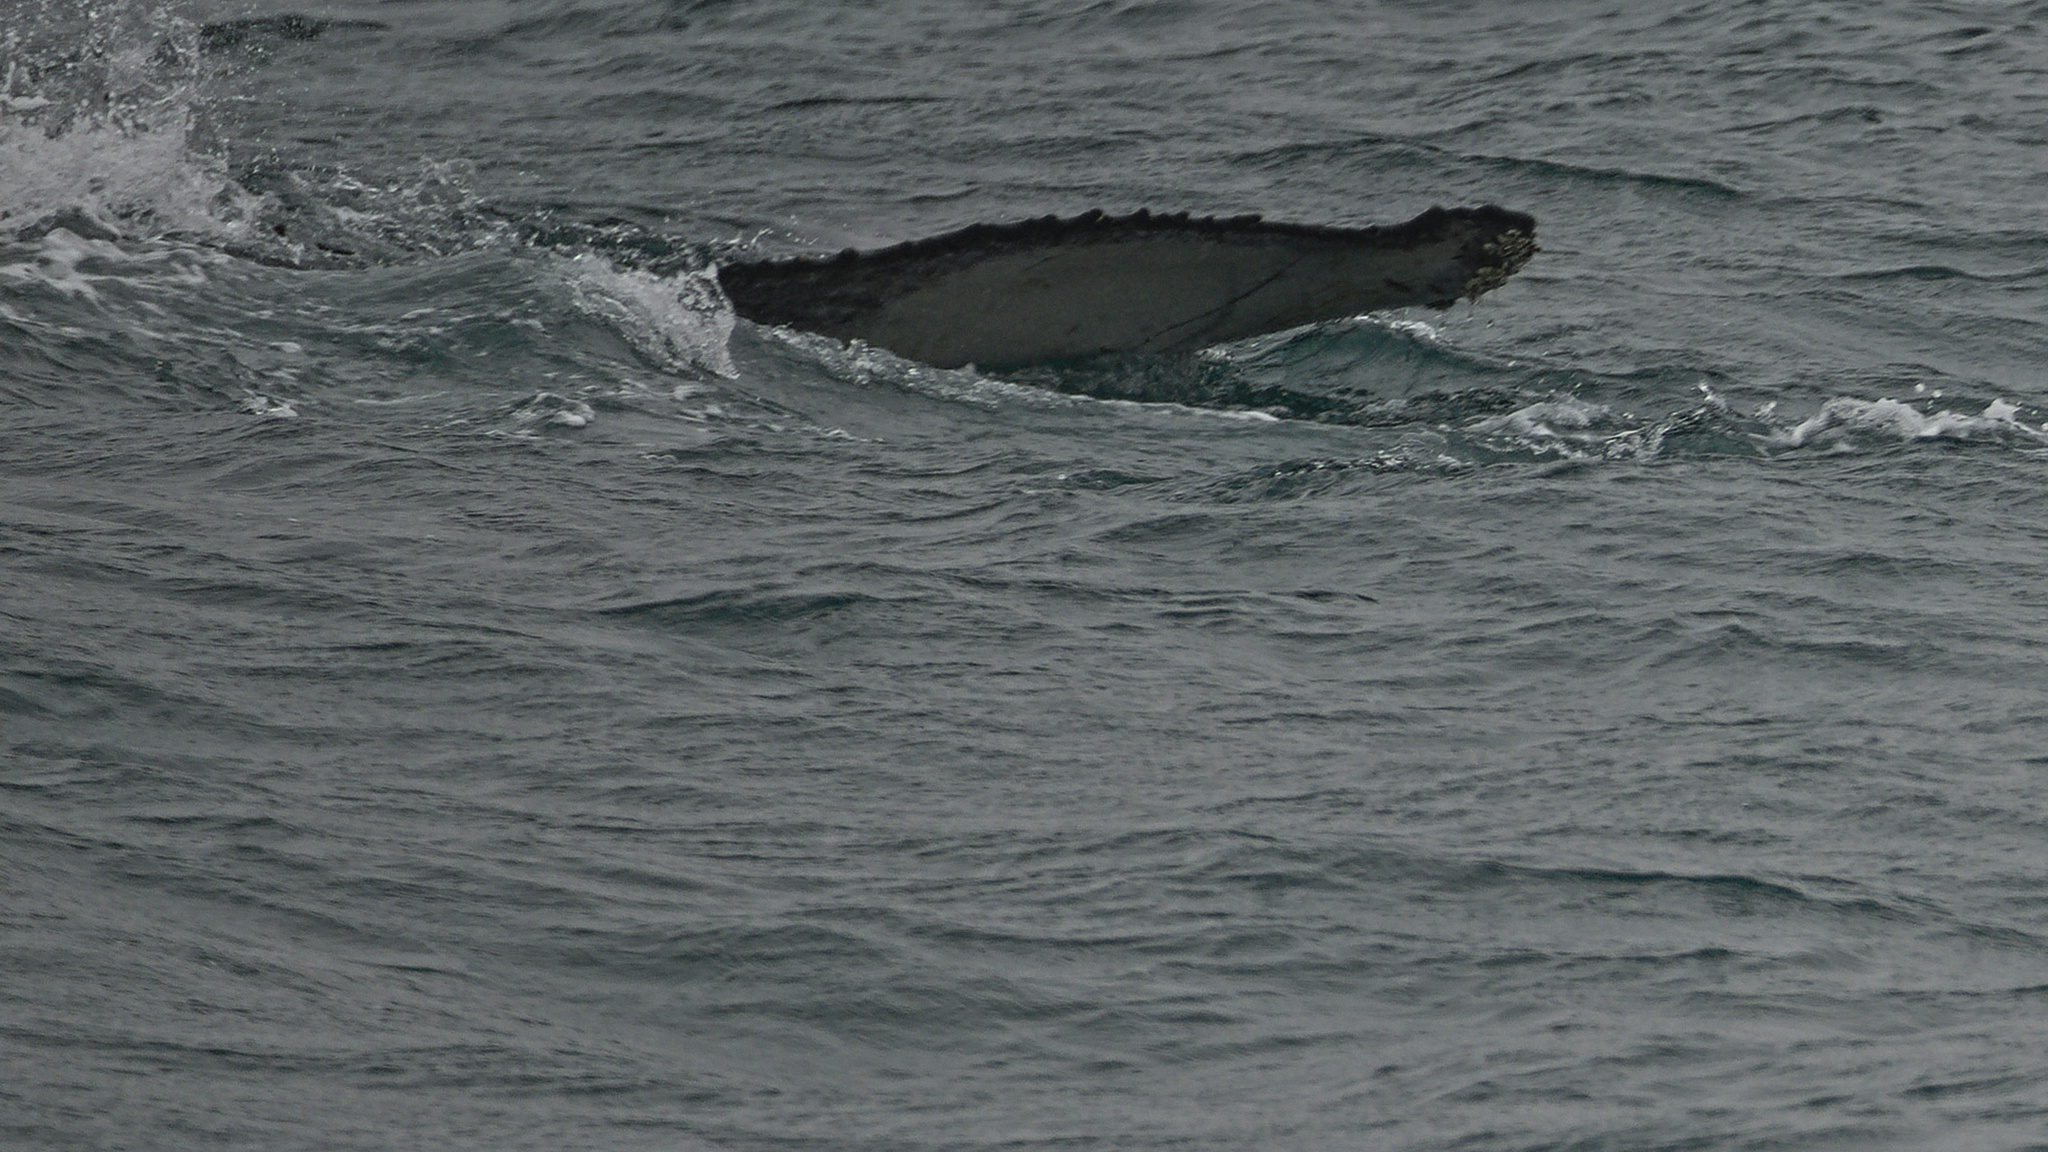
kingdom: Animalia
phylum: Chordata
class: Mammalia
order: Cetacea
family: Balaenopteridae
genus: Megaptera
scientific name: Megaptera novaeangliae
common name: Humpback whale
